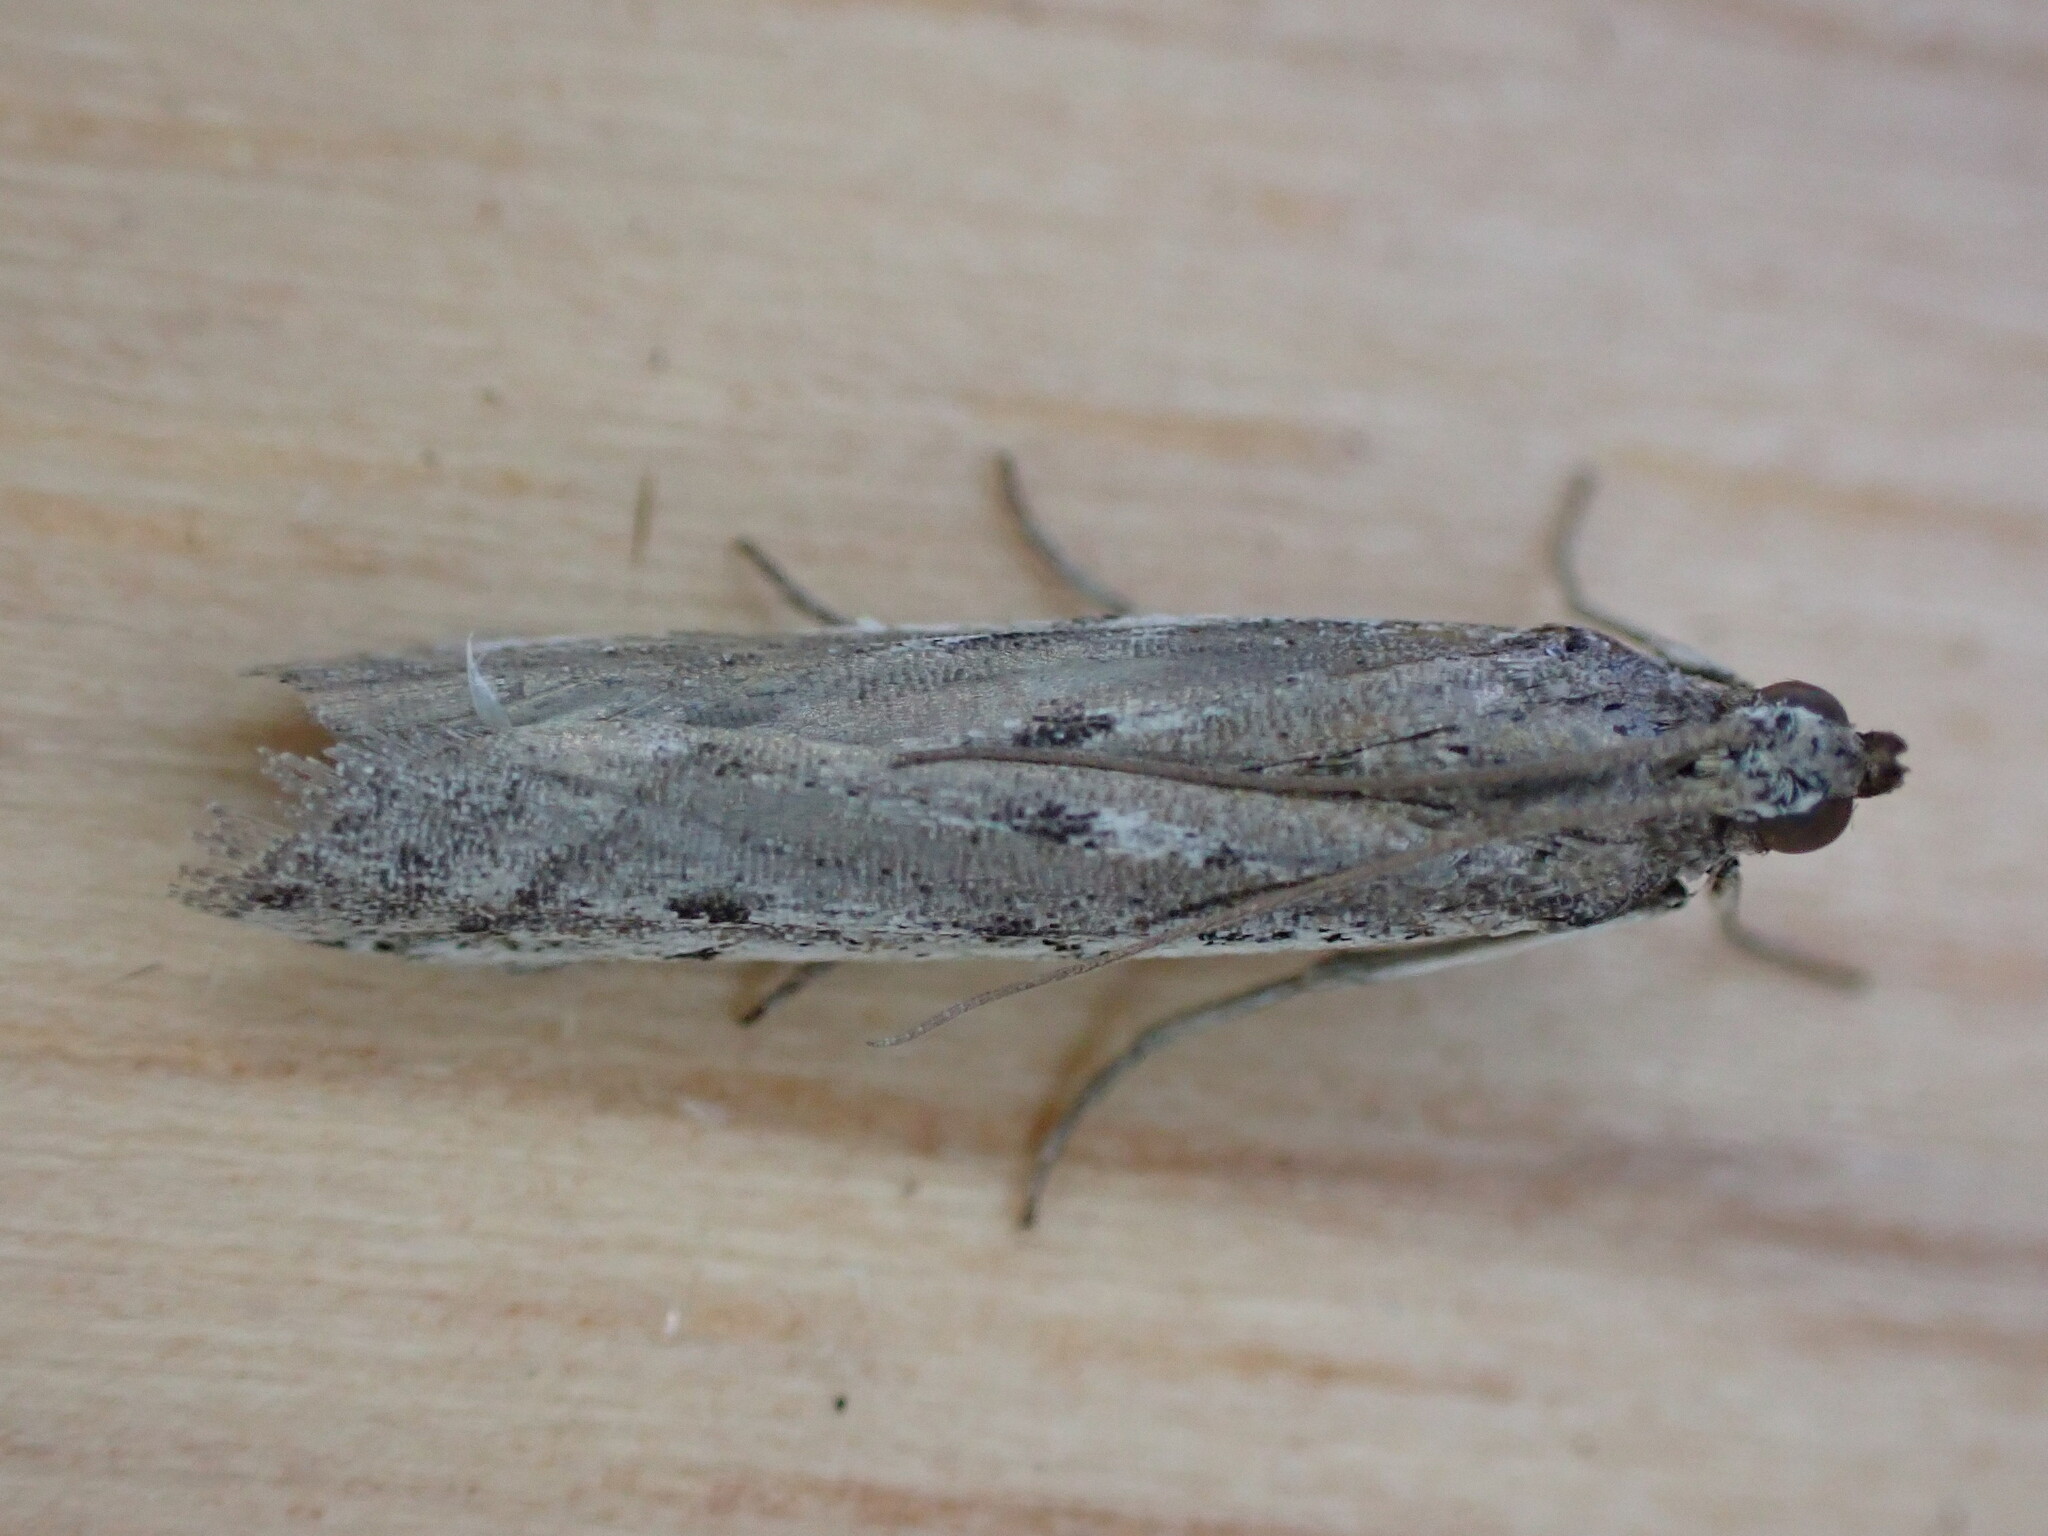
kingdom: Animalia
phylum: Arthropoda
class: Insecta
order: Lepidoptera
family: Pyralidae
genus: Phycitodes
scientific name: Phycitodes binaevella
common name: Ermine knot-horn
